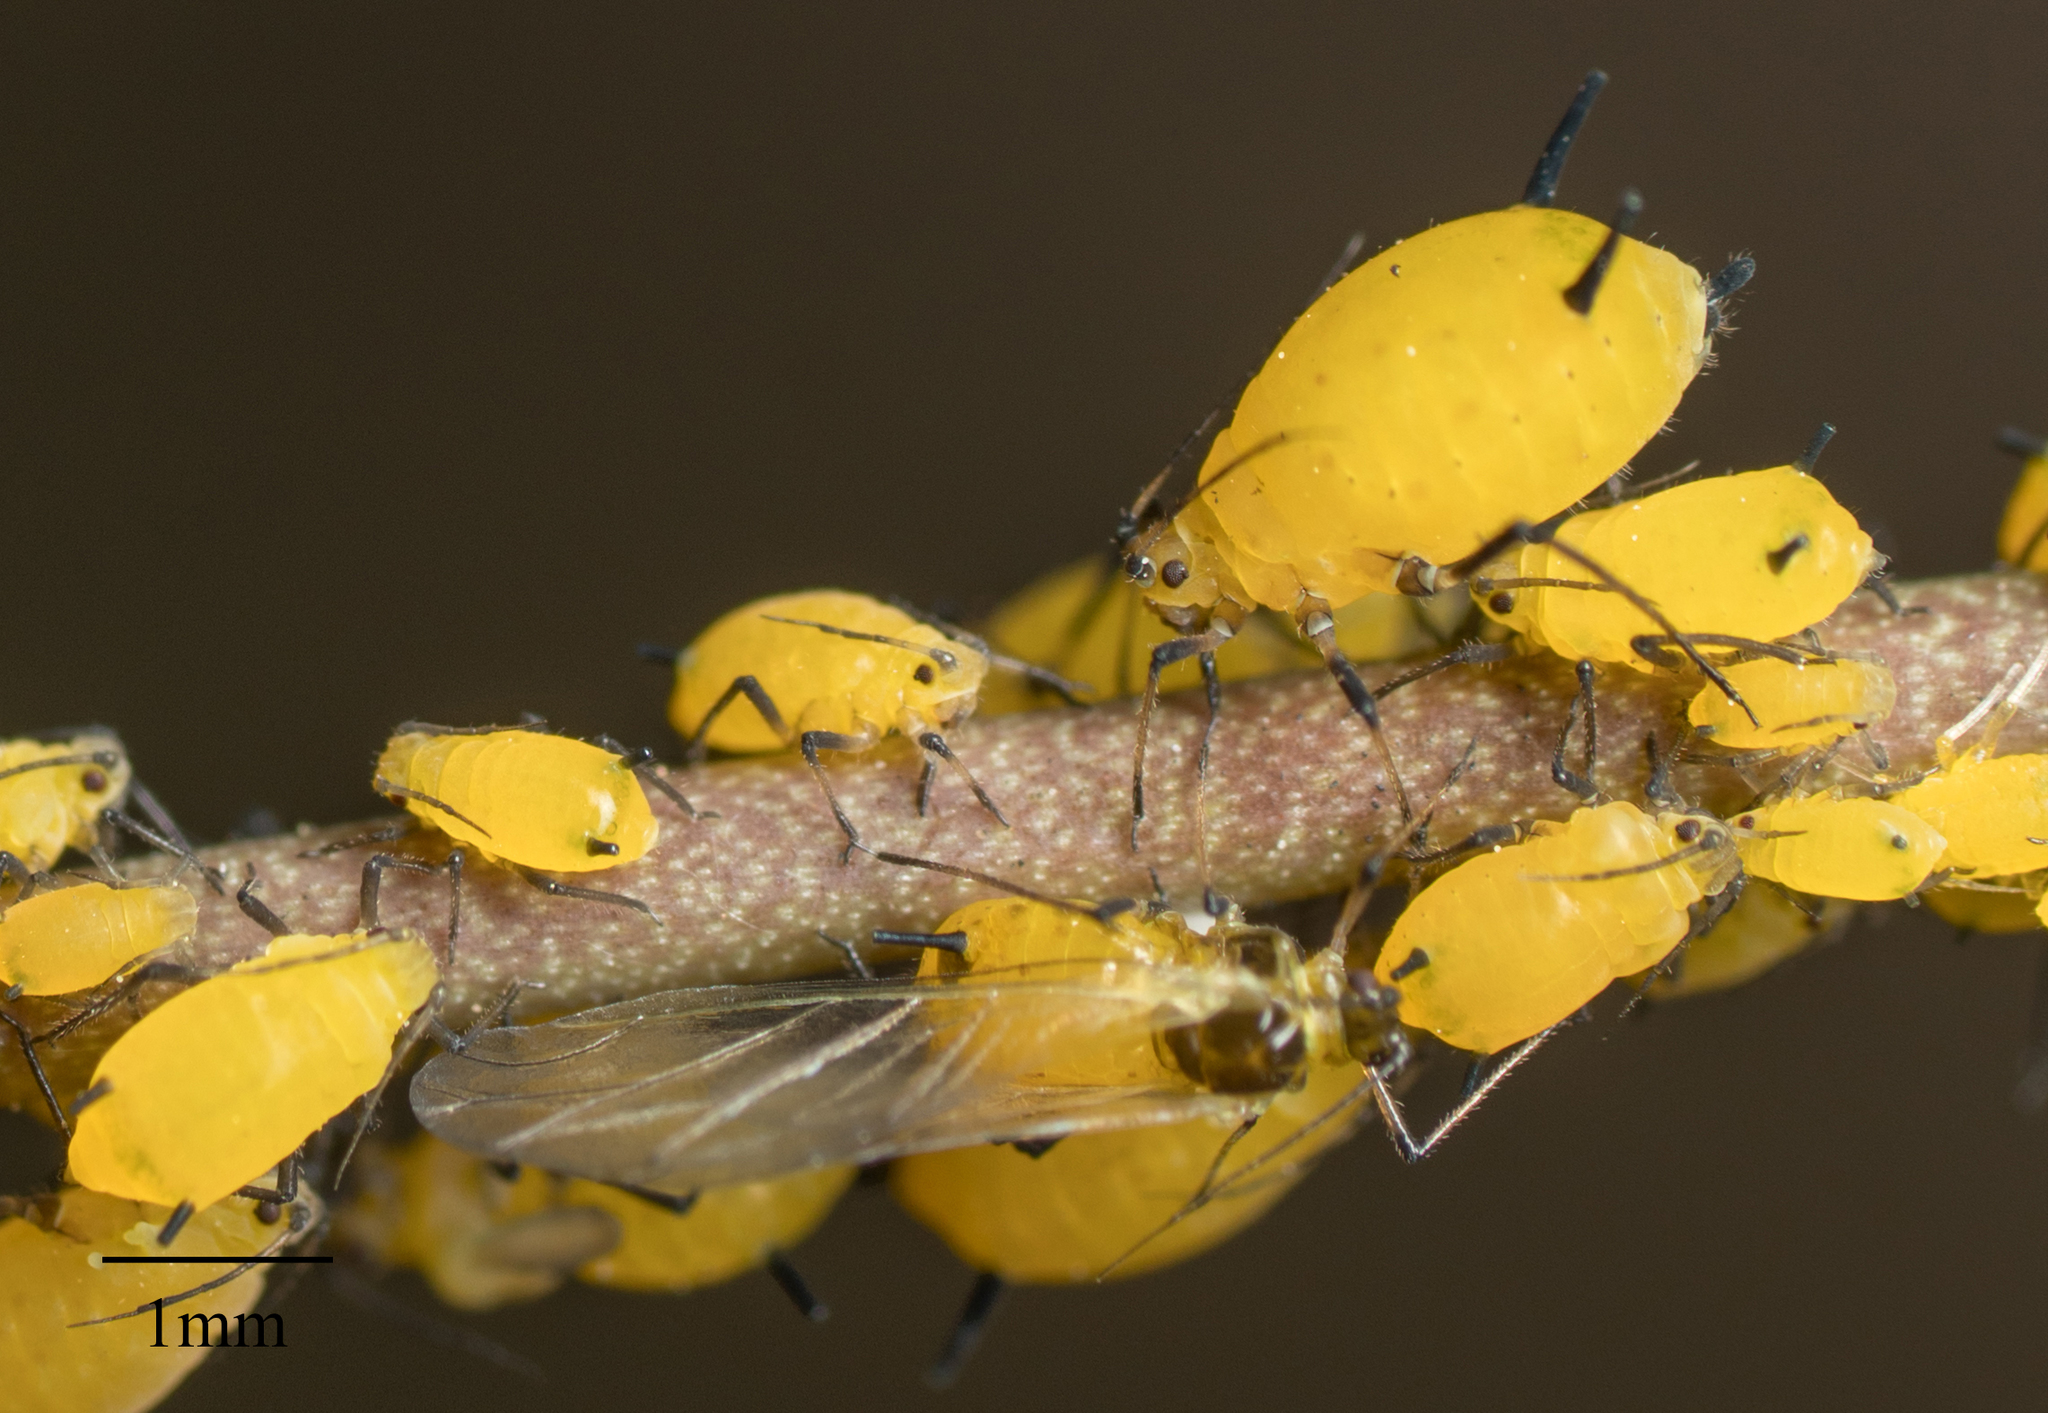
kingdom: Animalia
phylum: Arthropoda
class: Insecta
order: Hemiptera
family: Aphididae
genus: Aphis
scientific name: Aphis nerii
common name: Oleander aphid
